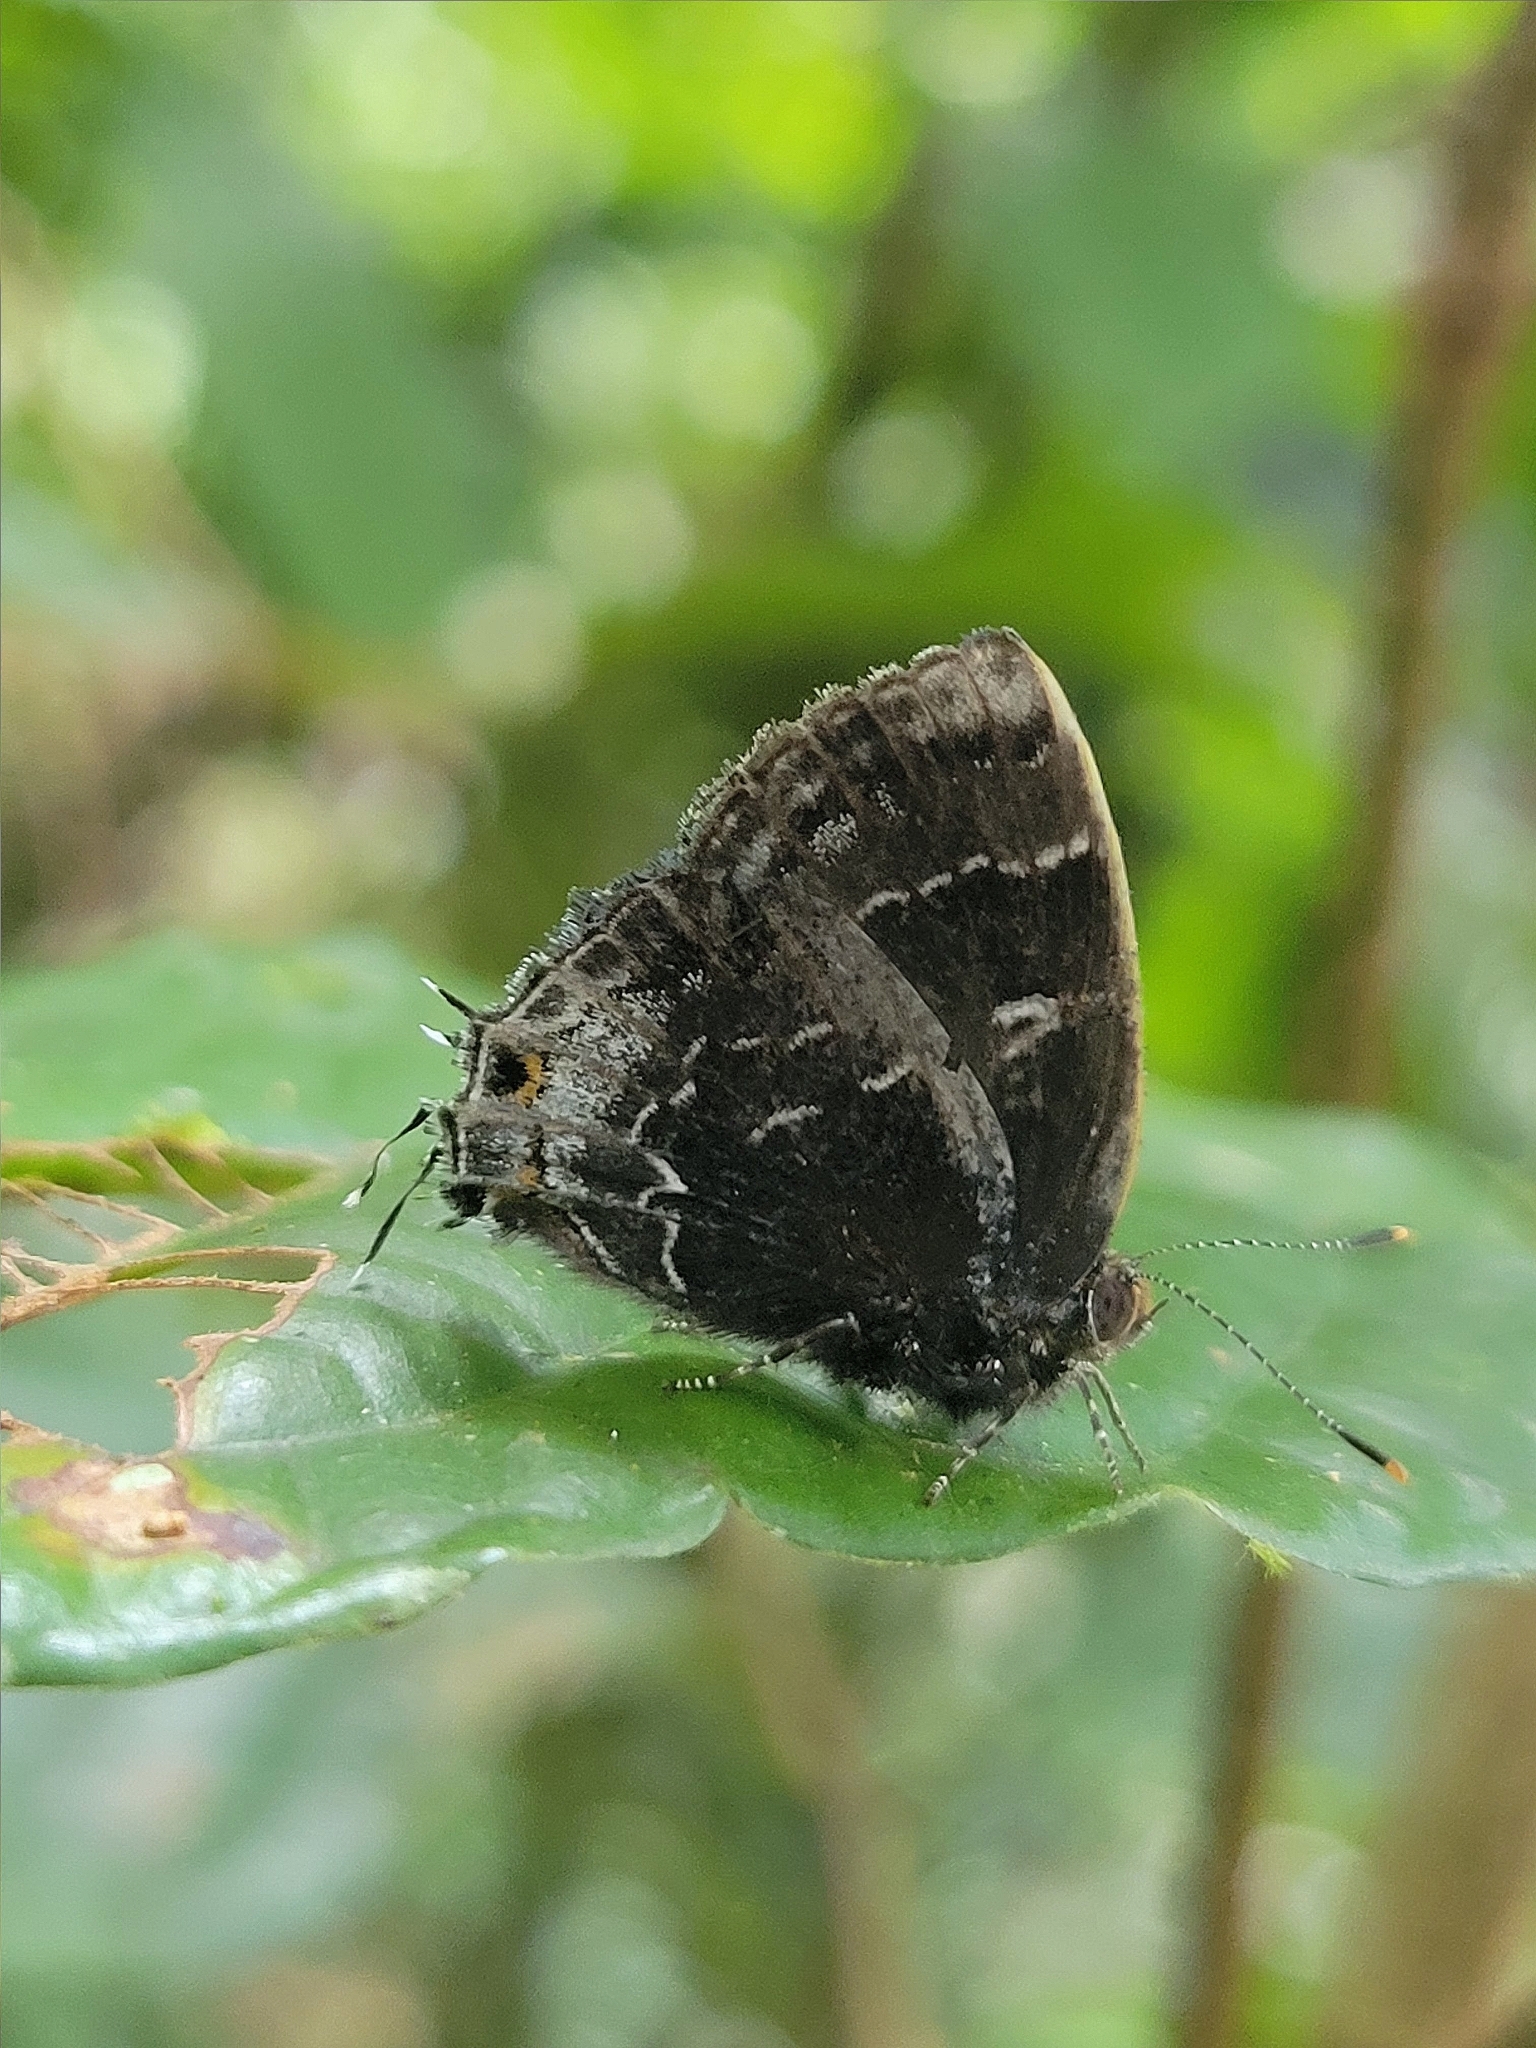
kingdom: Animalia
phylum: Arthropoda
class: Insecta
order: Lepidoptera
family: Lycaenidae
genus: Ocaria
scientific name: Ocaria ocrisia
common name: Black hairstreak
